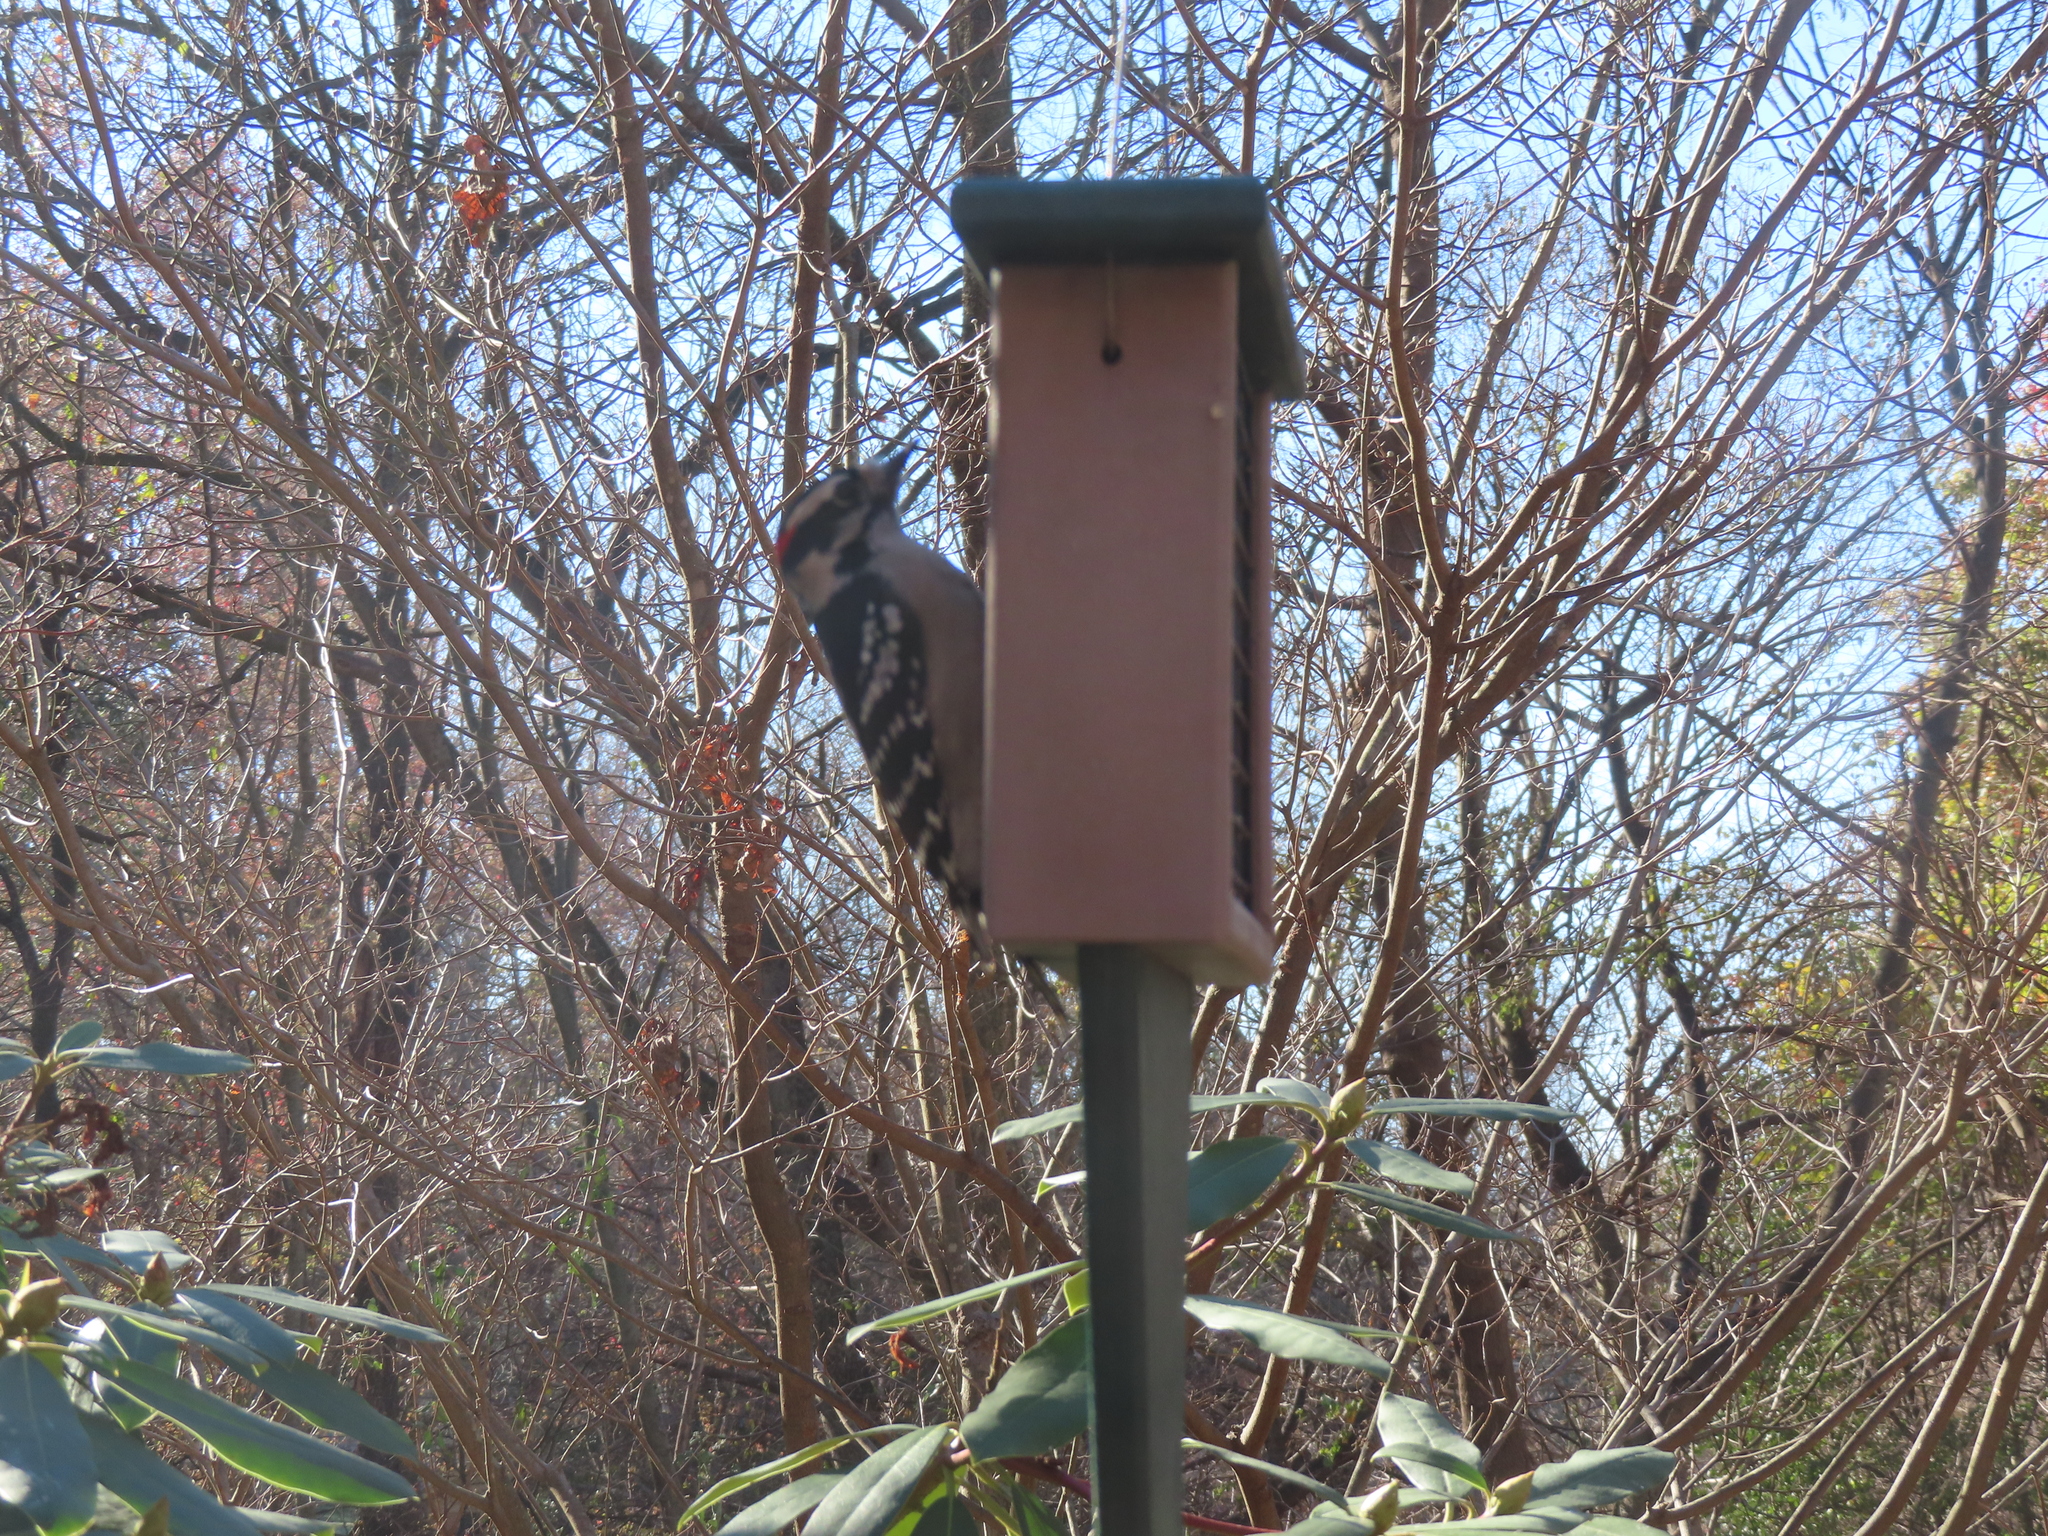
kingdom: Animalia
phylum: Chordata
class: Aves
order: Piciformes
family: Picidae
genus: Dryobates
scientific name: Dryobates pubescens
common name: Downy woodpecker
